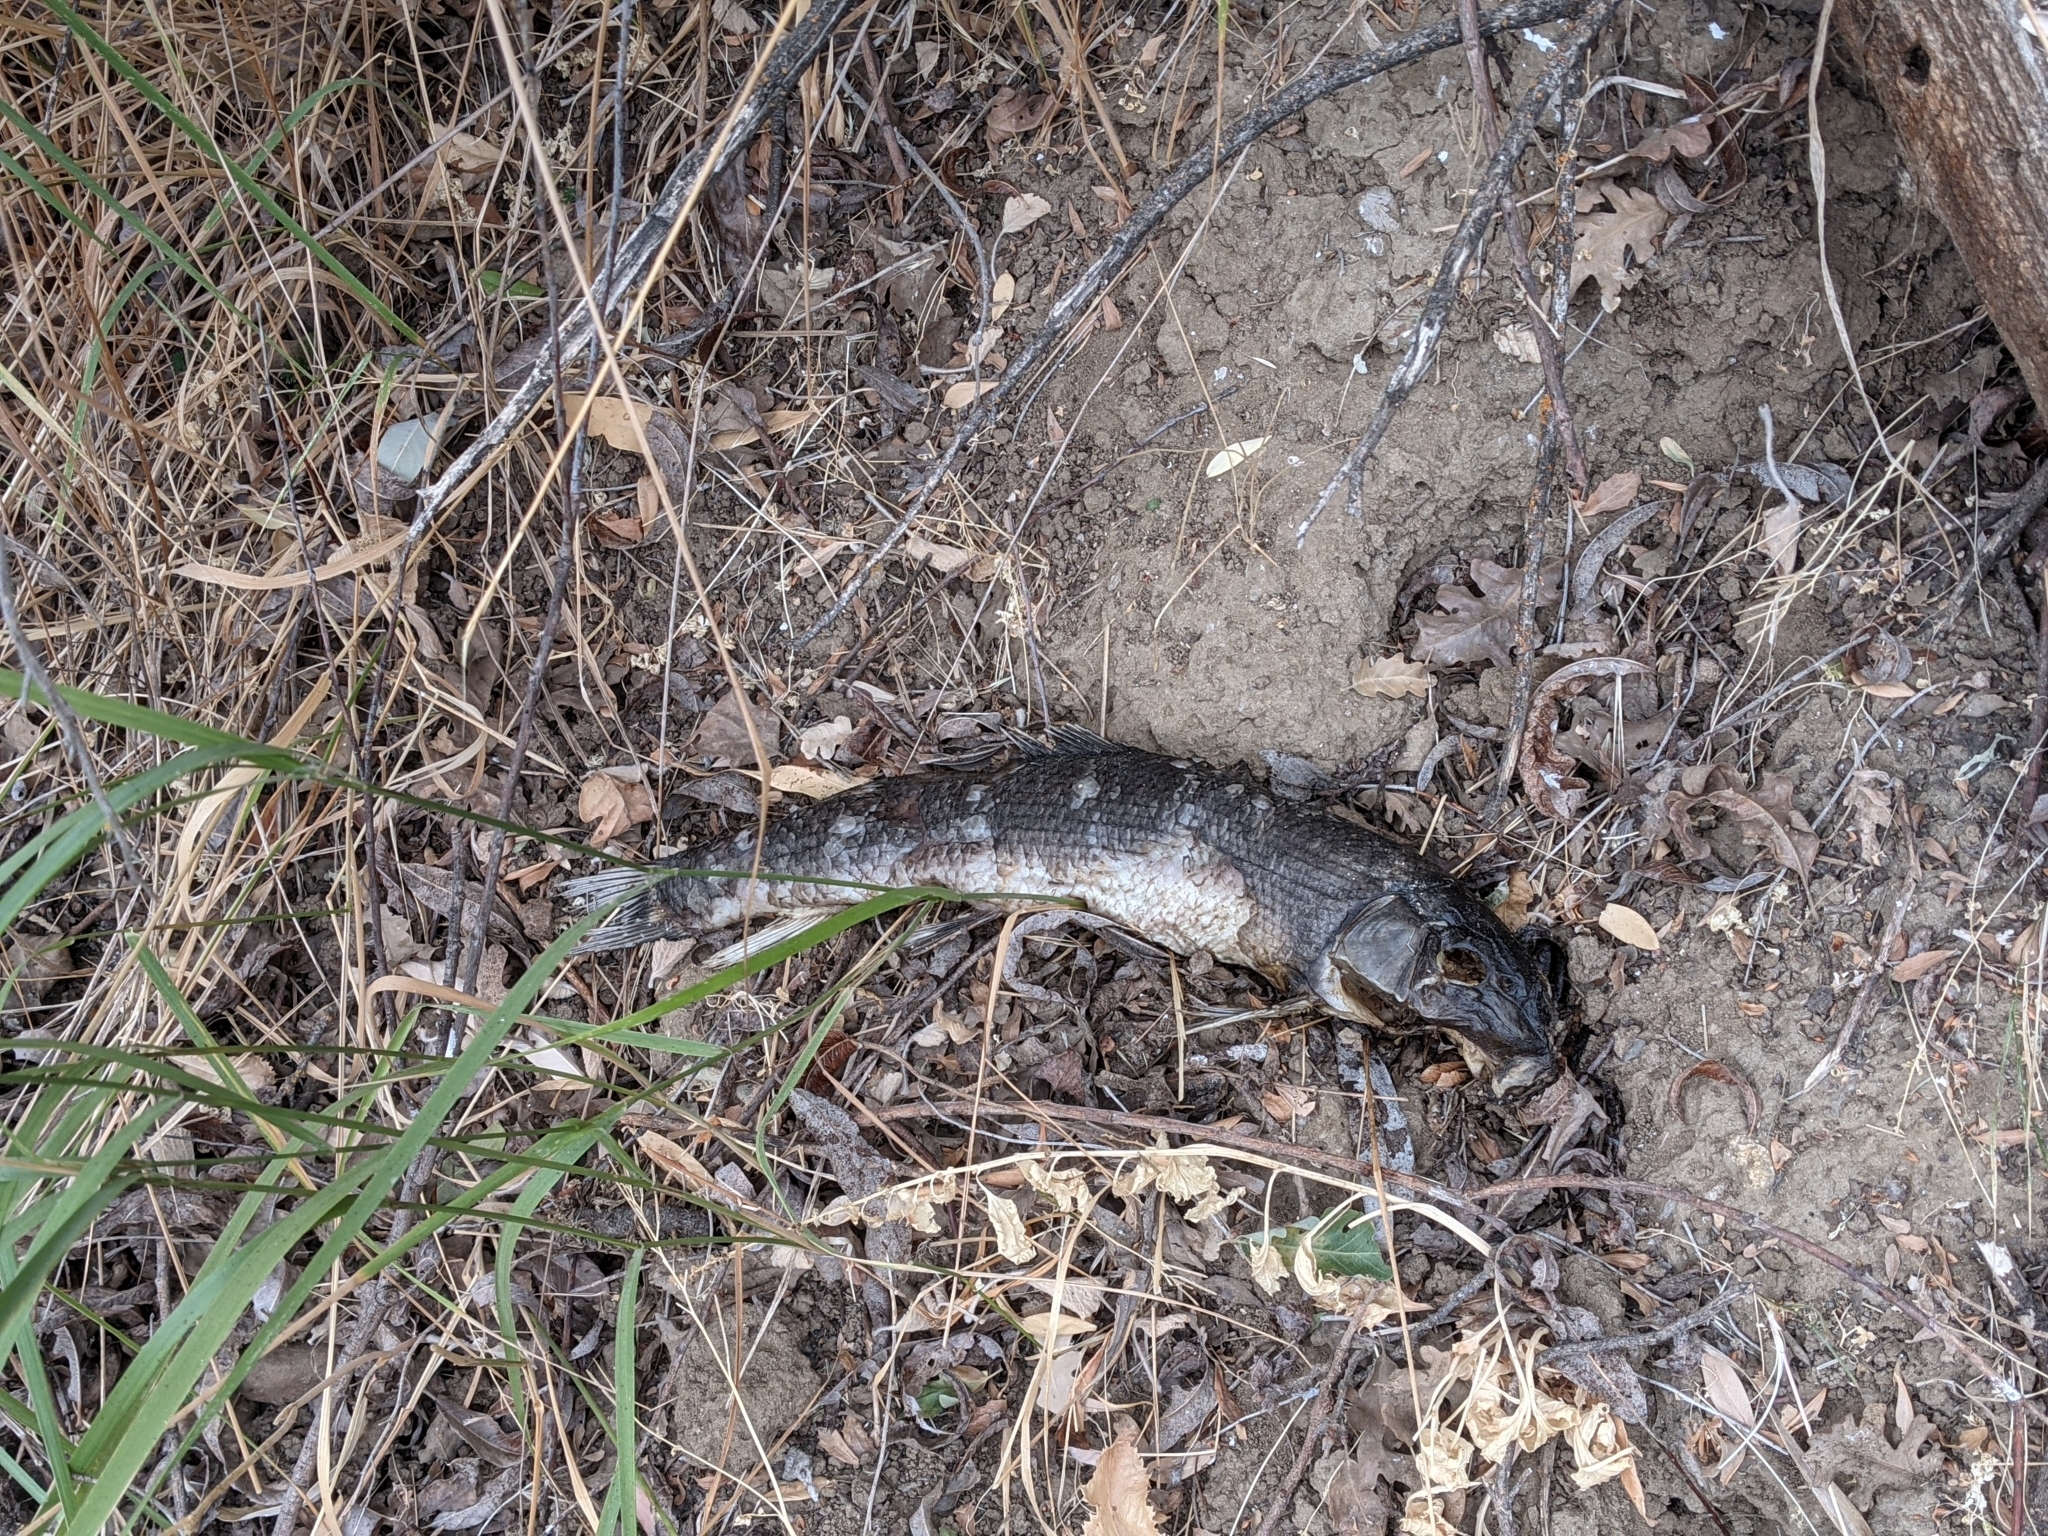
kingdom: Animalia
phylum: Chordata
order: Cypriniformes
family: Catostomidae
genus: Catostomus
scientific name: Catostomus occidentalis
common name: Goose lake sucker
